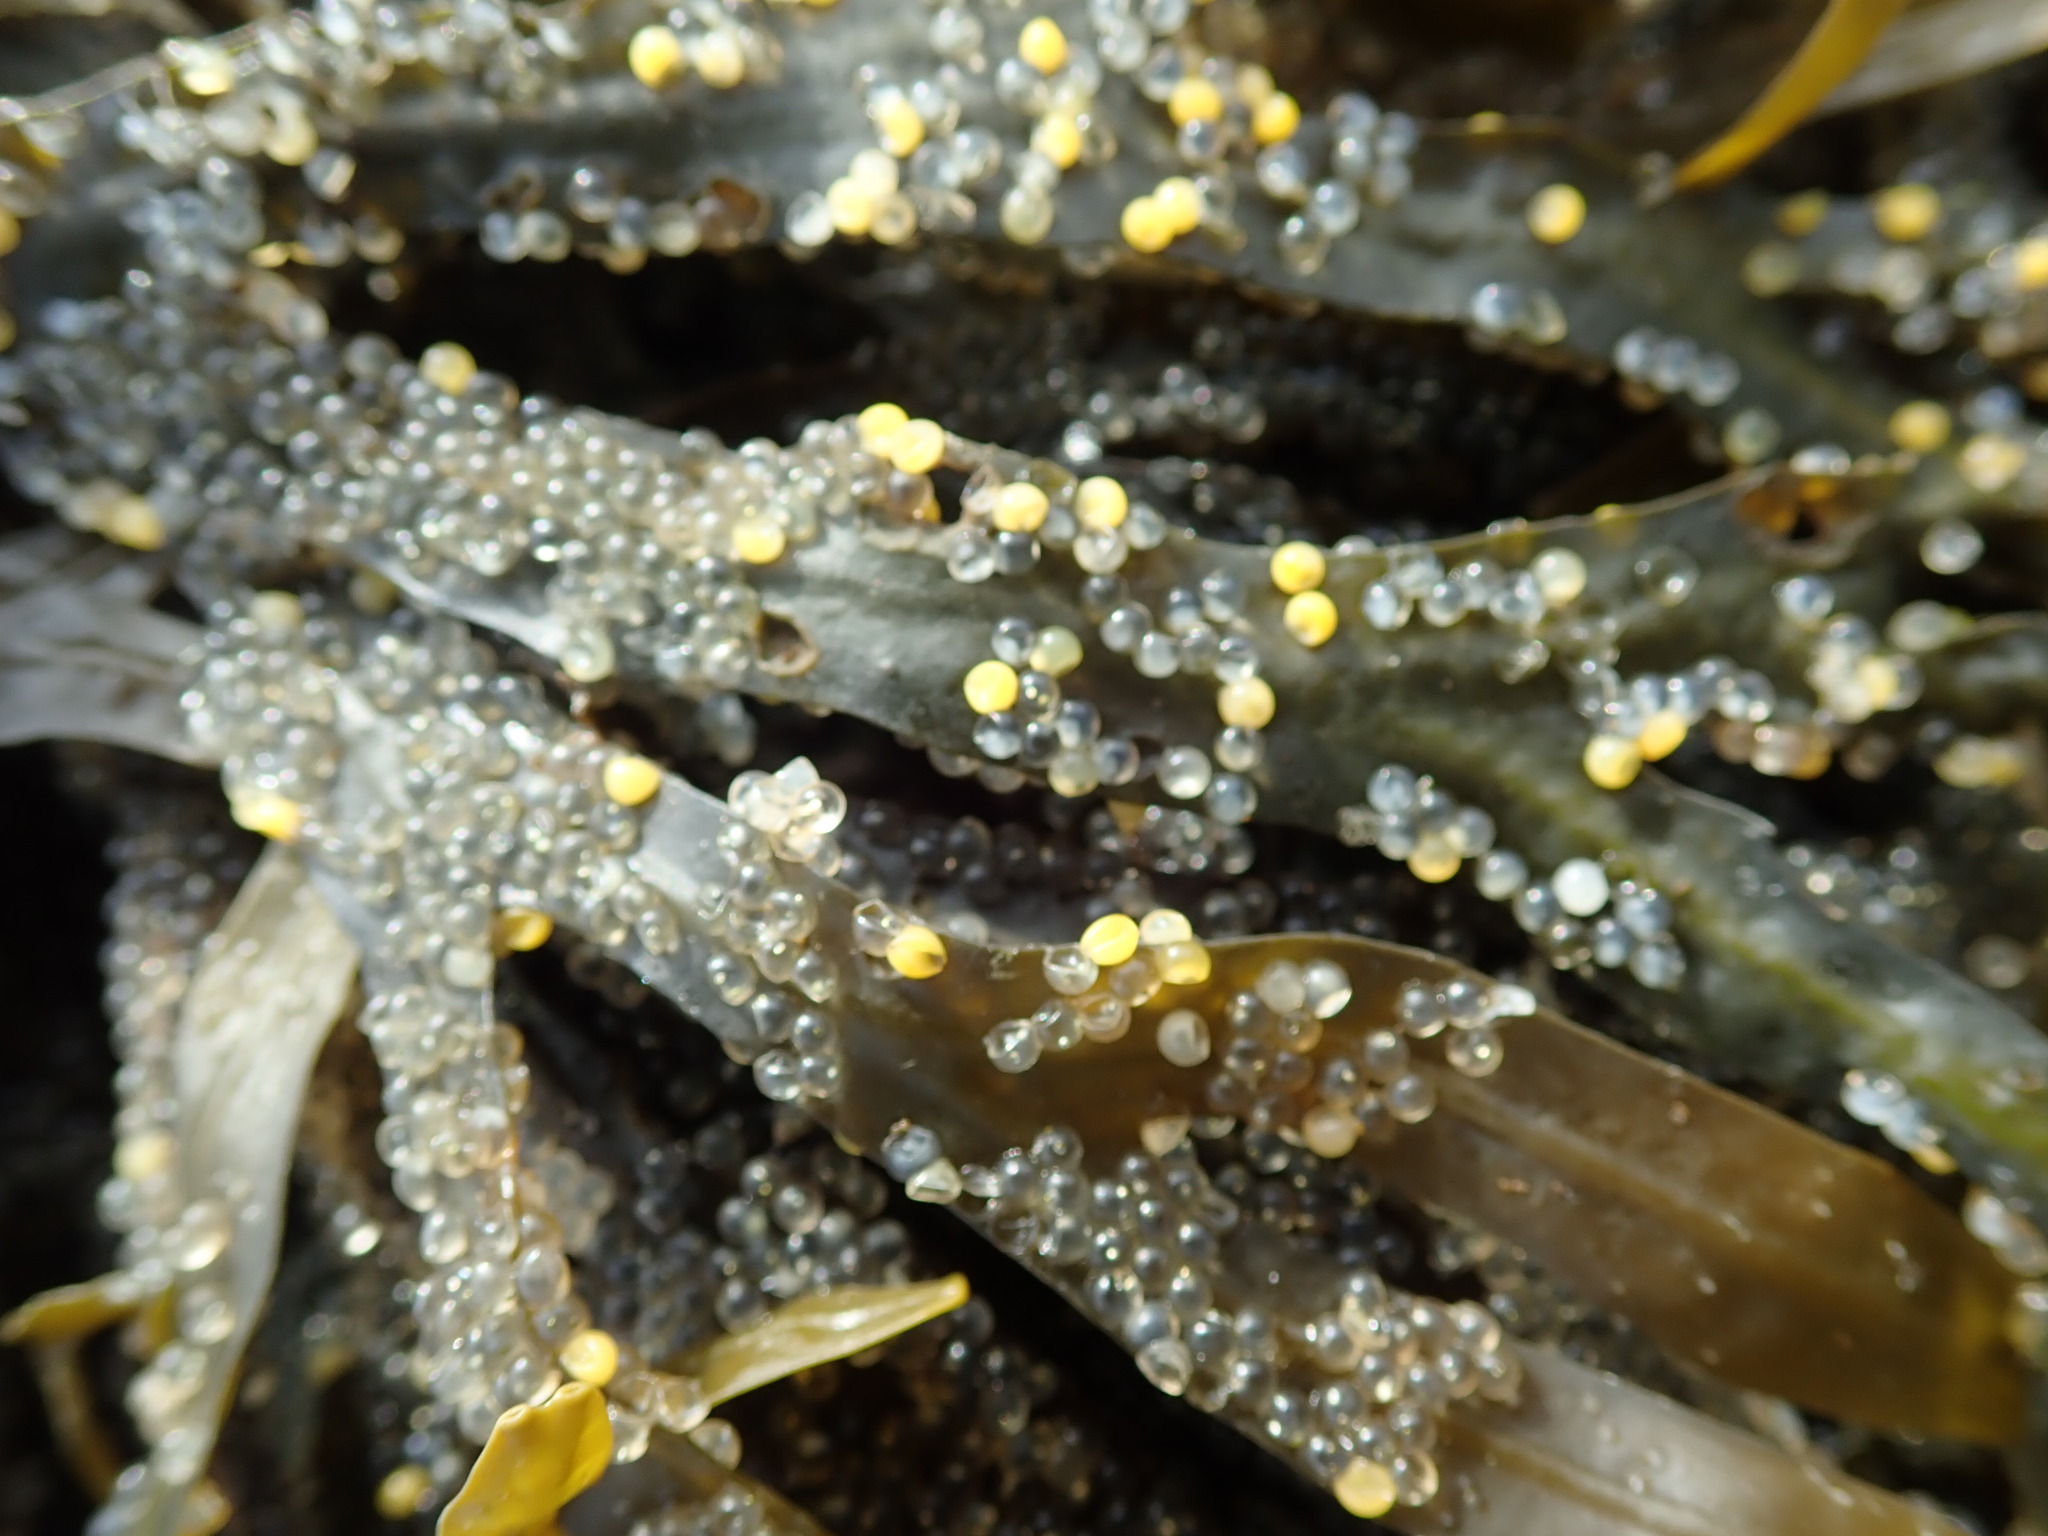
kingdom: Animalia
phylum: Chordata
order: Clupeiformes
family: Clupeidae
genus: Clupea
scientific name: Clupea pallasii
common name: Pacific herring
